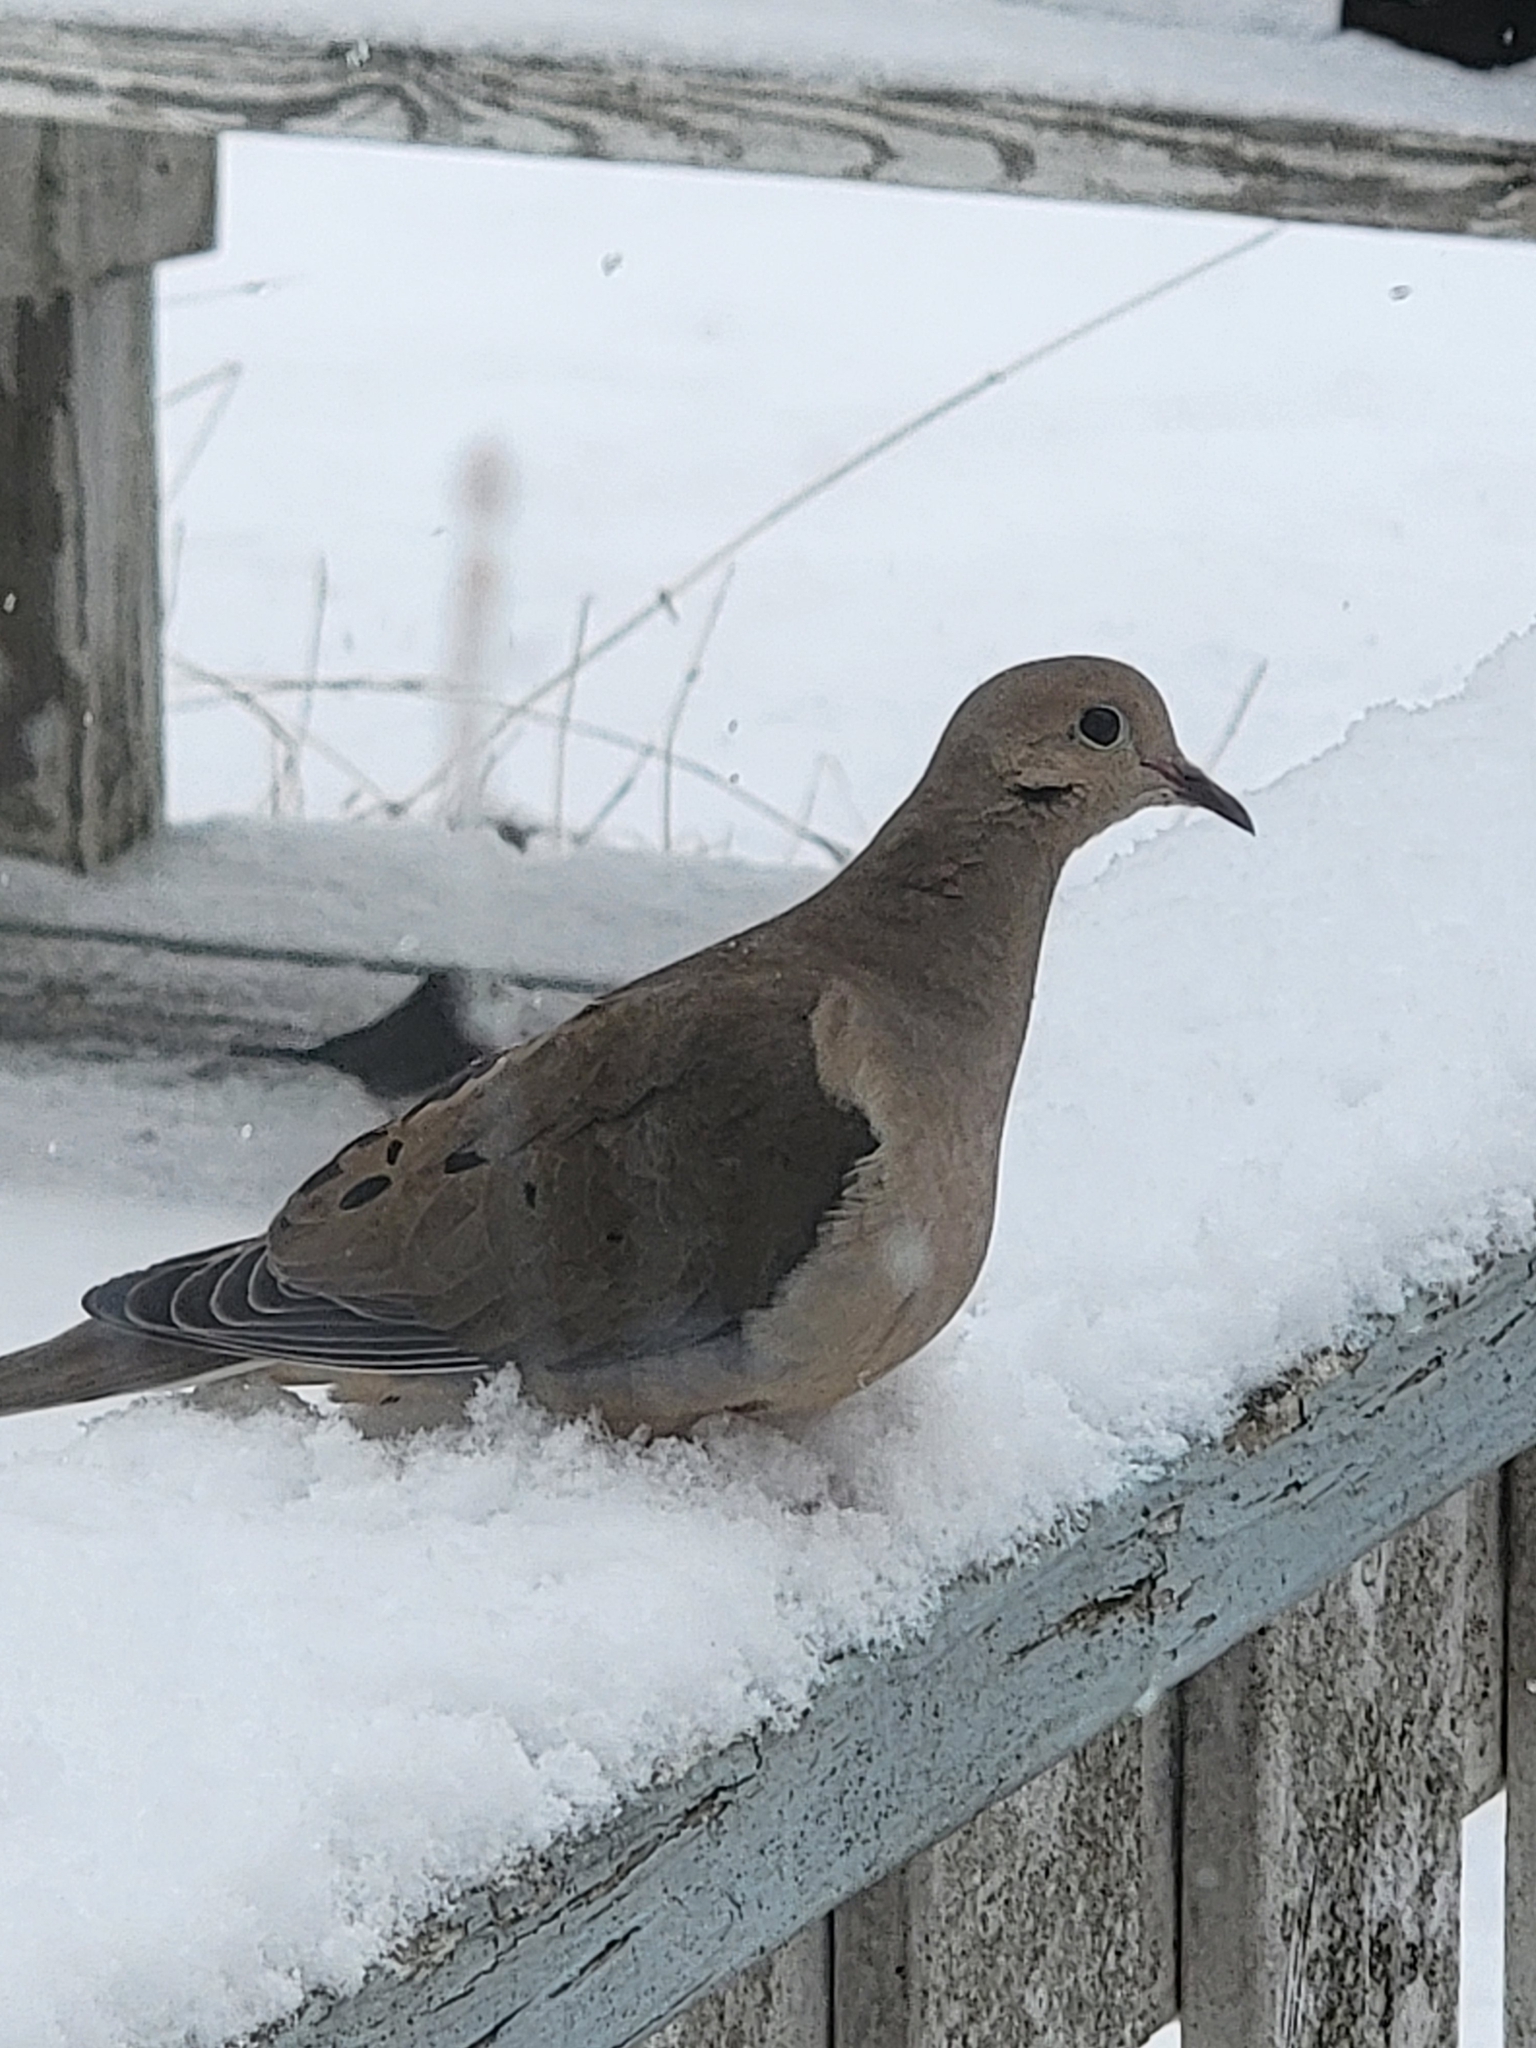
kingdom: Animalia
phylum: Chordata
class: Aves
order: Columbiformes
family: Columbidae
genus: Zenaida
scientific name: Zenaida macroura
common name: Mourning dove
